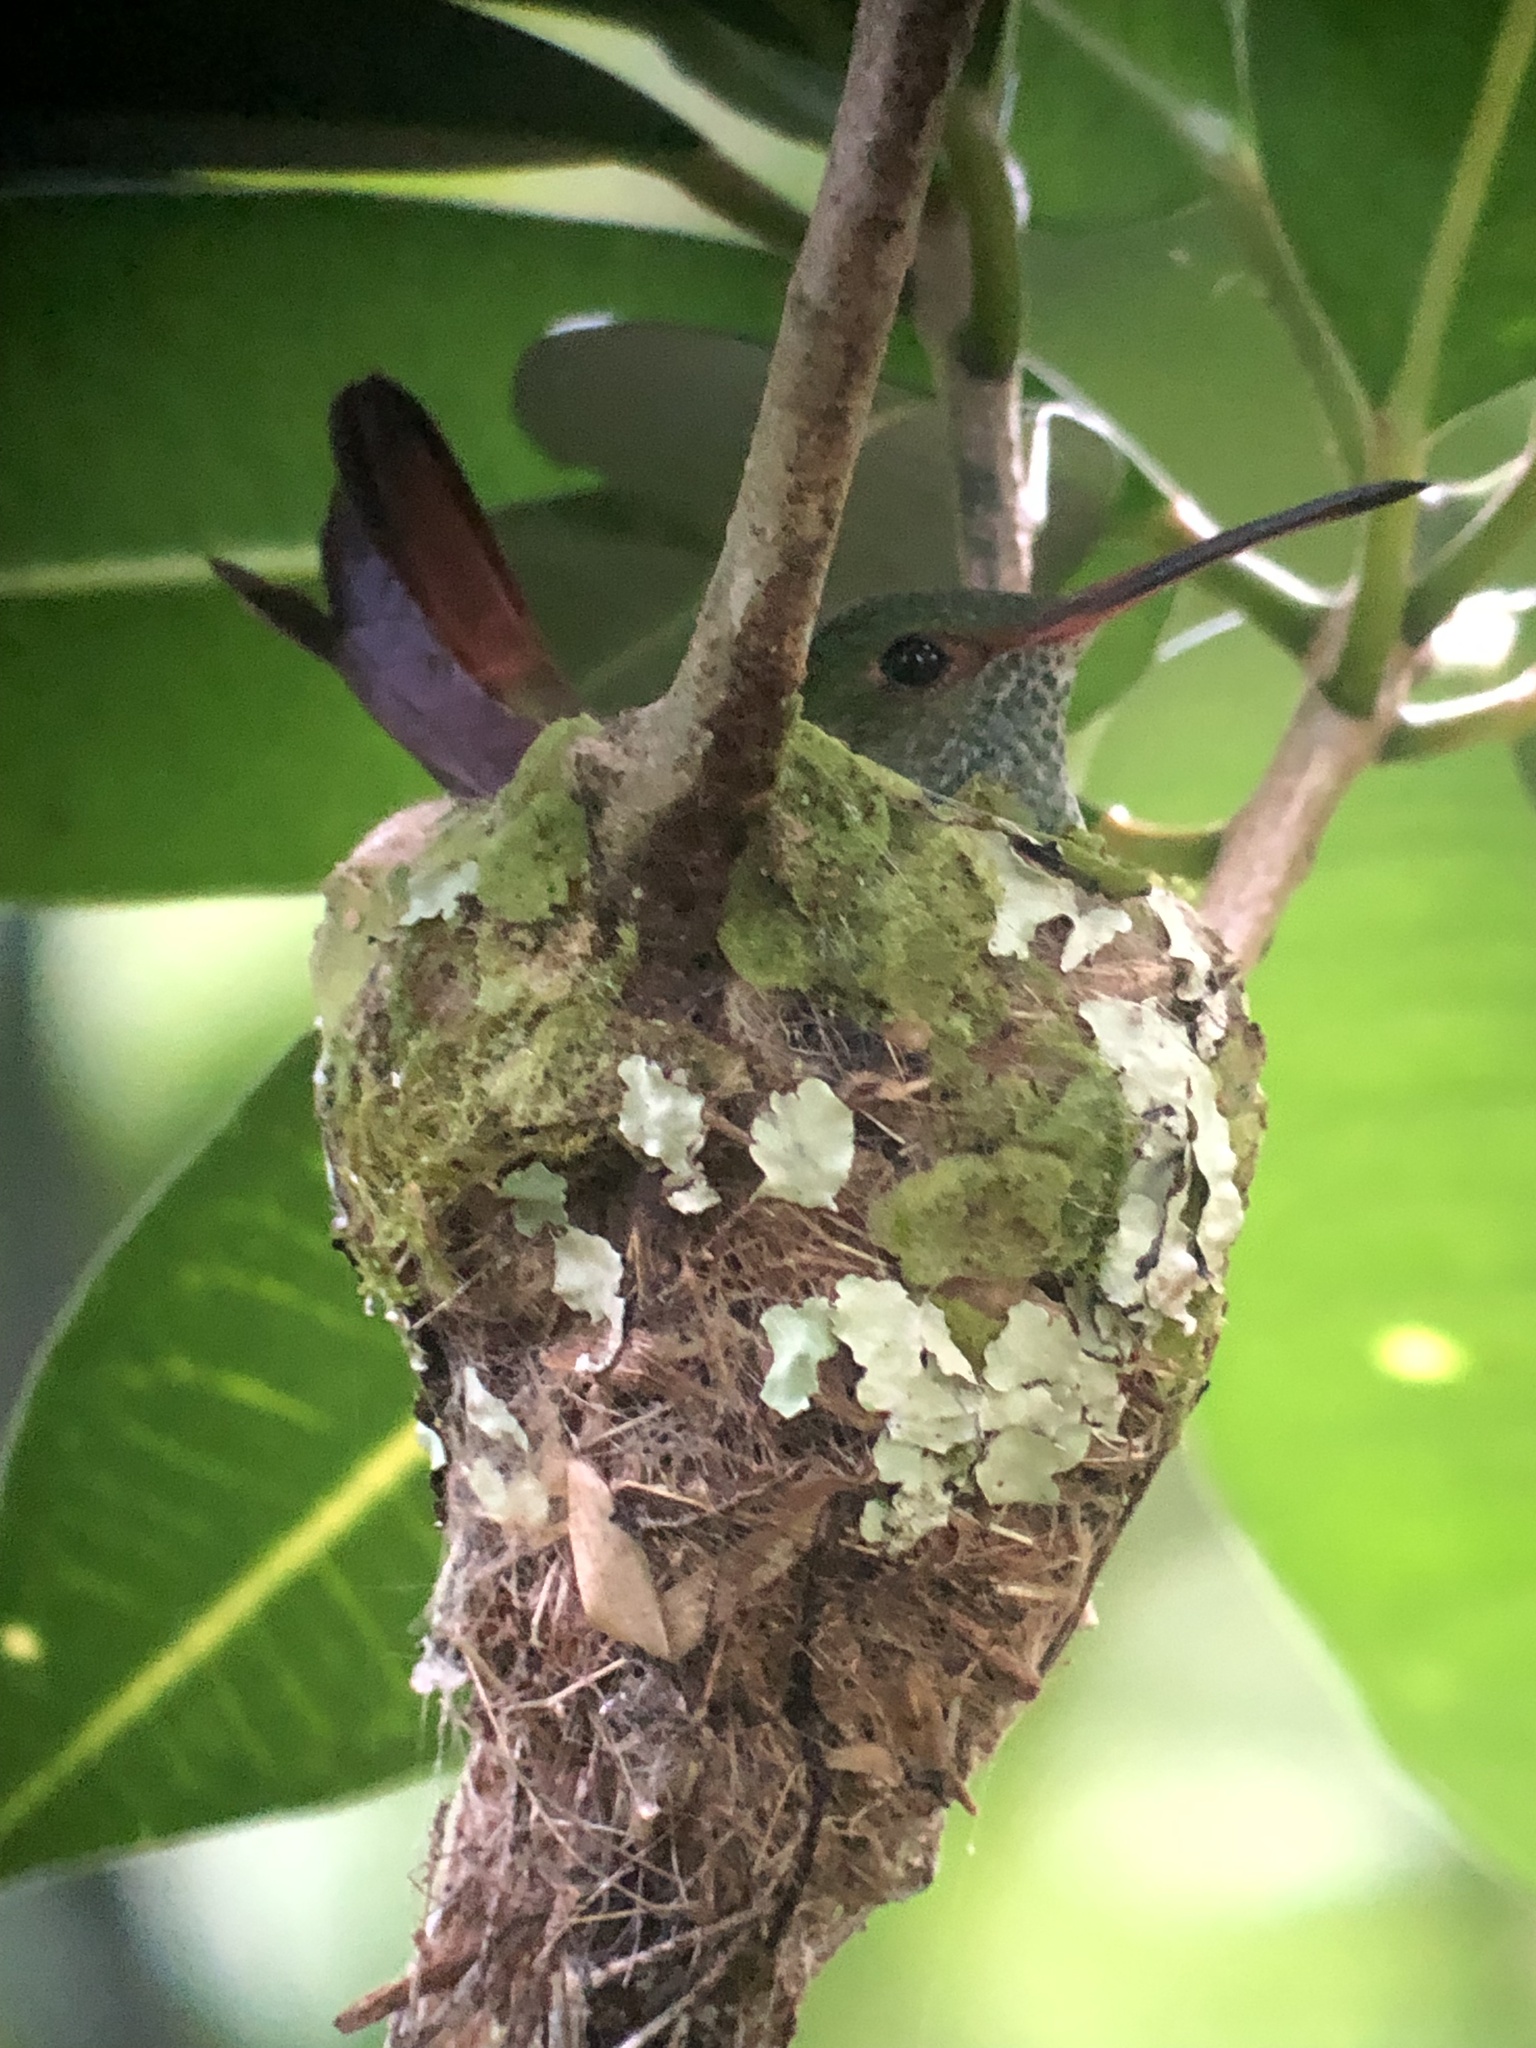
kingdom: Animalia
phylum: Chordata
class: Aves
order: Apodiformes
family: Trochilidae
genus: Amazilia
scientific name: Amazilia tzacatl
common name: Rufous-tailed hummingbird
